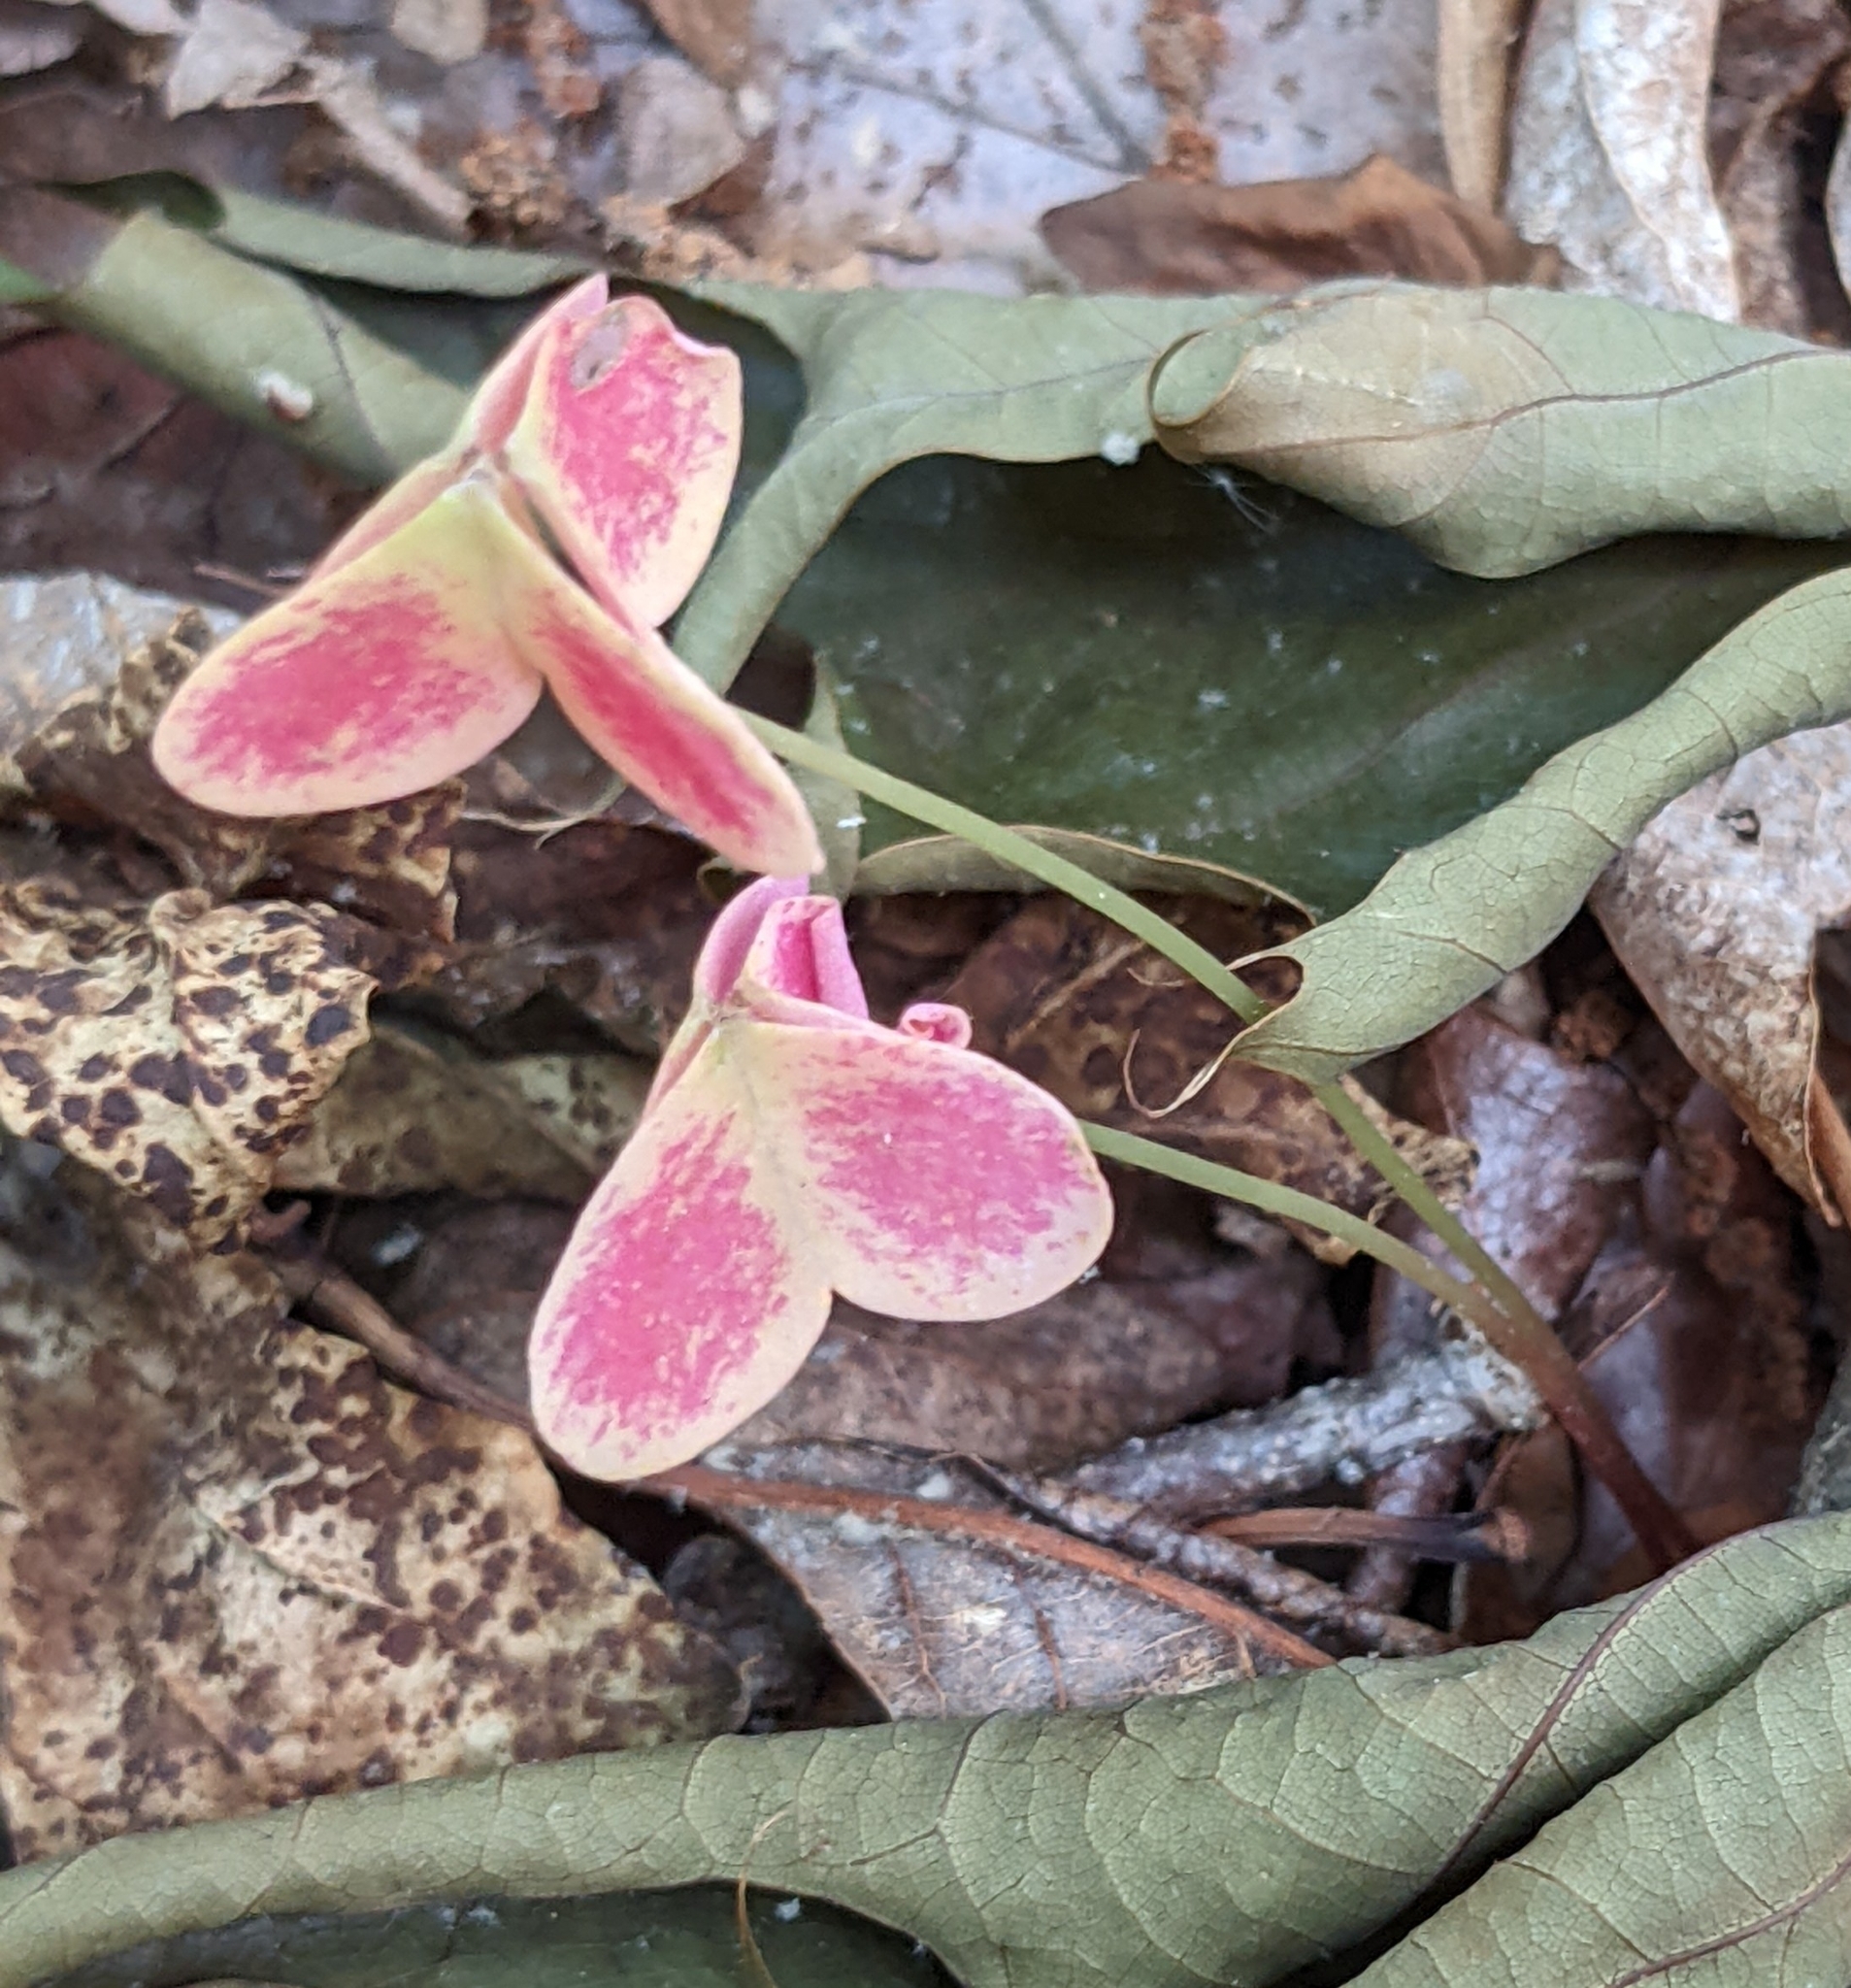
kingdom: Plantae
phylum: Tracheophyta
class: Magnoliopsida
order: Oxalidales
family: Oxalidaceae
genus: Oxalis
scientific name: Oxalis violacea
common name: Violet wood-sorrel
